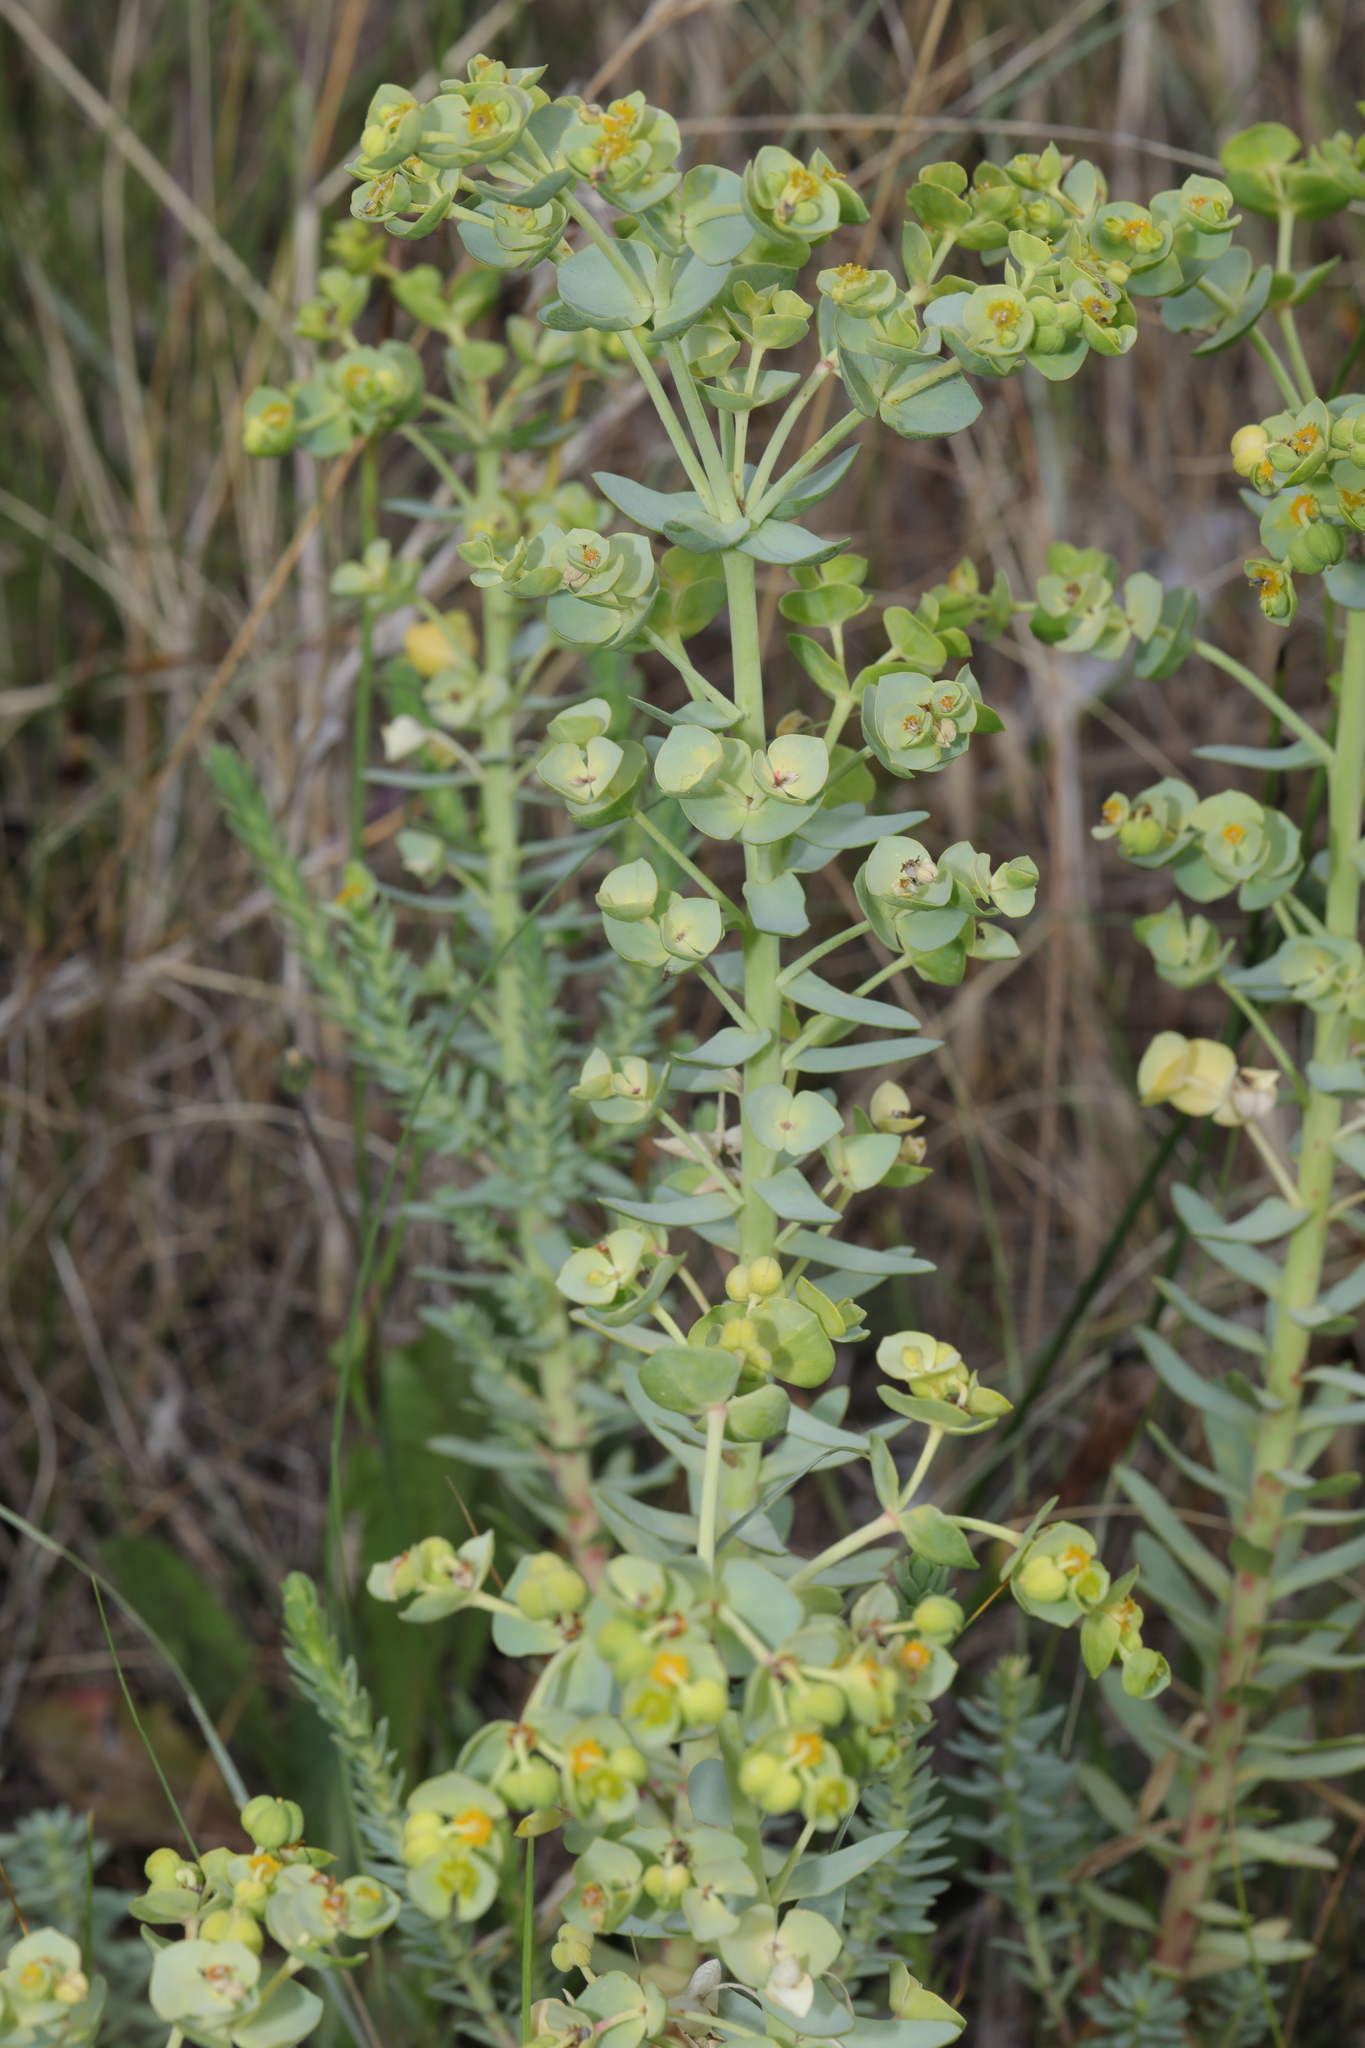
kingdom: Plantae
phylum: Tracheophyta
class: Magnoliopsida
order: Malpighiales
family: Euphorbiaceae
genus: Euphorbia
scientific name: Euphorbia paralias
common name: Sea spurge
